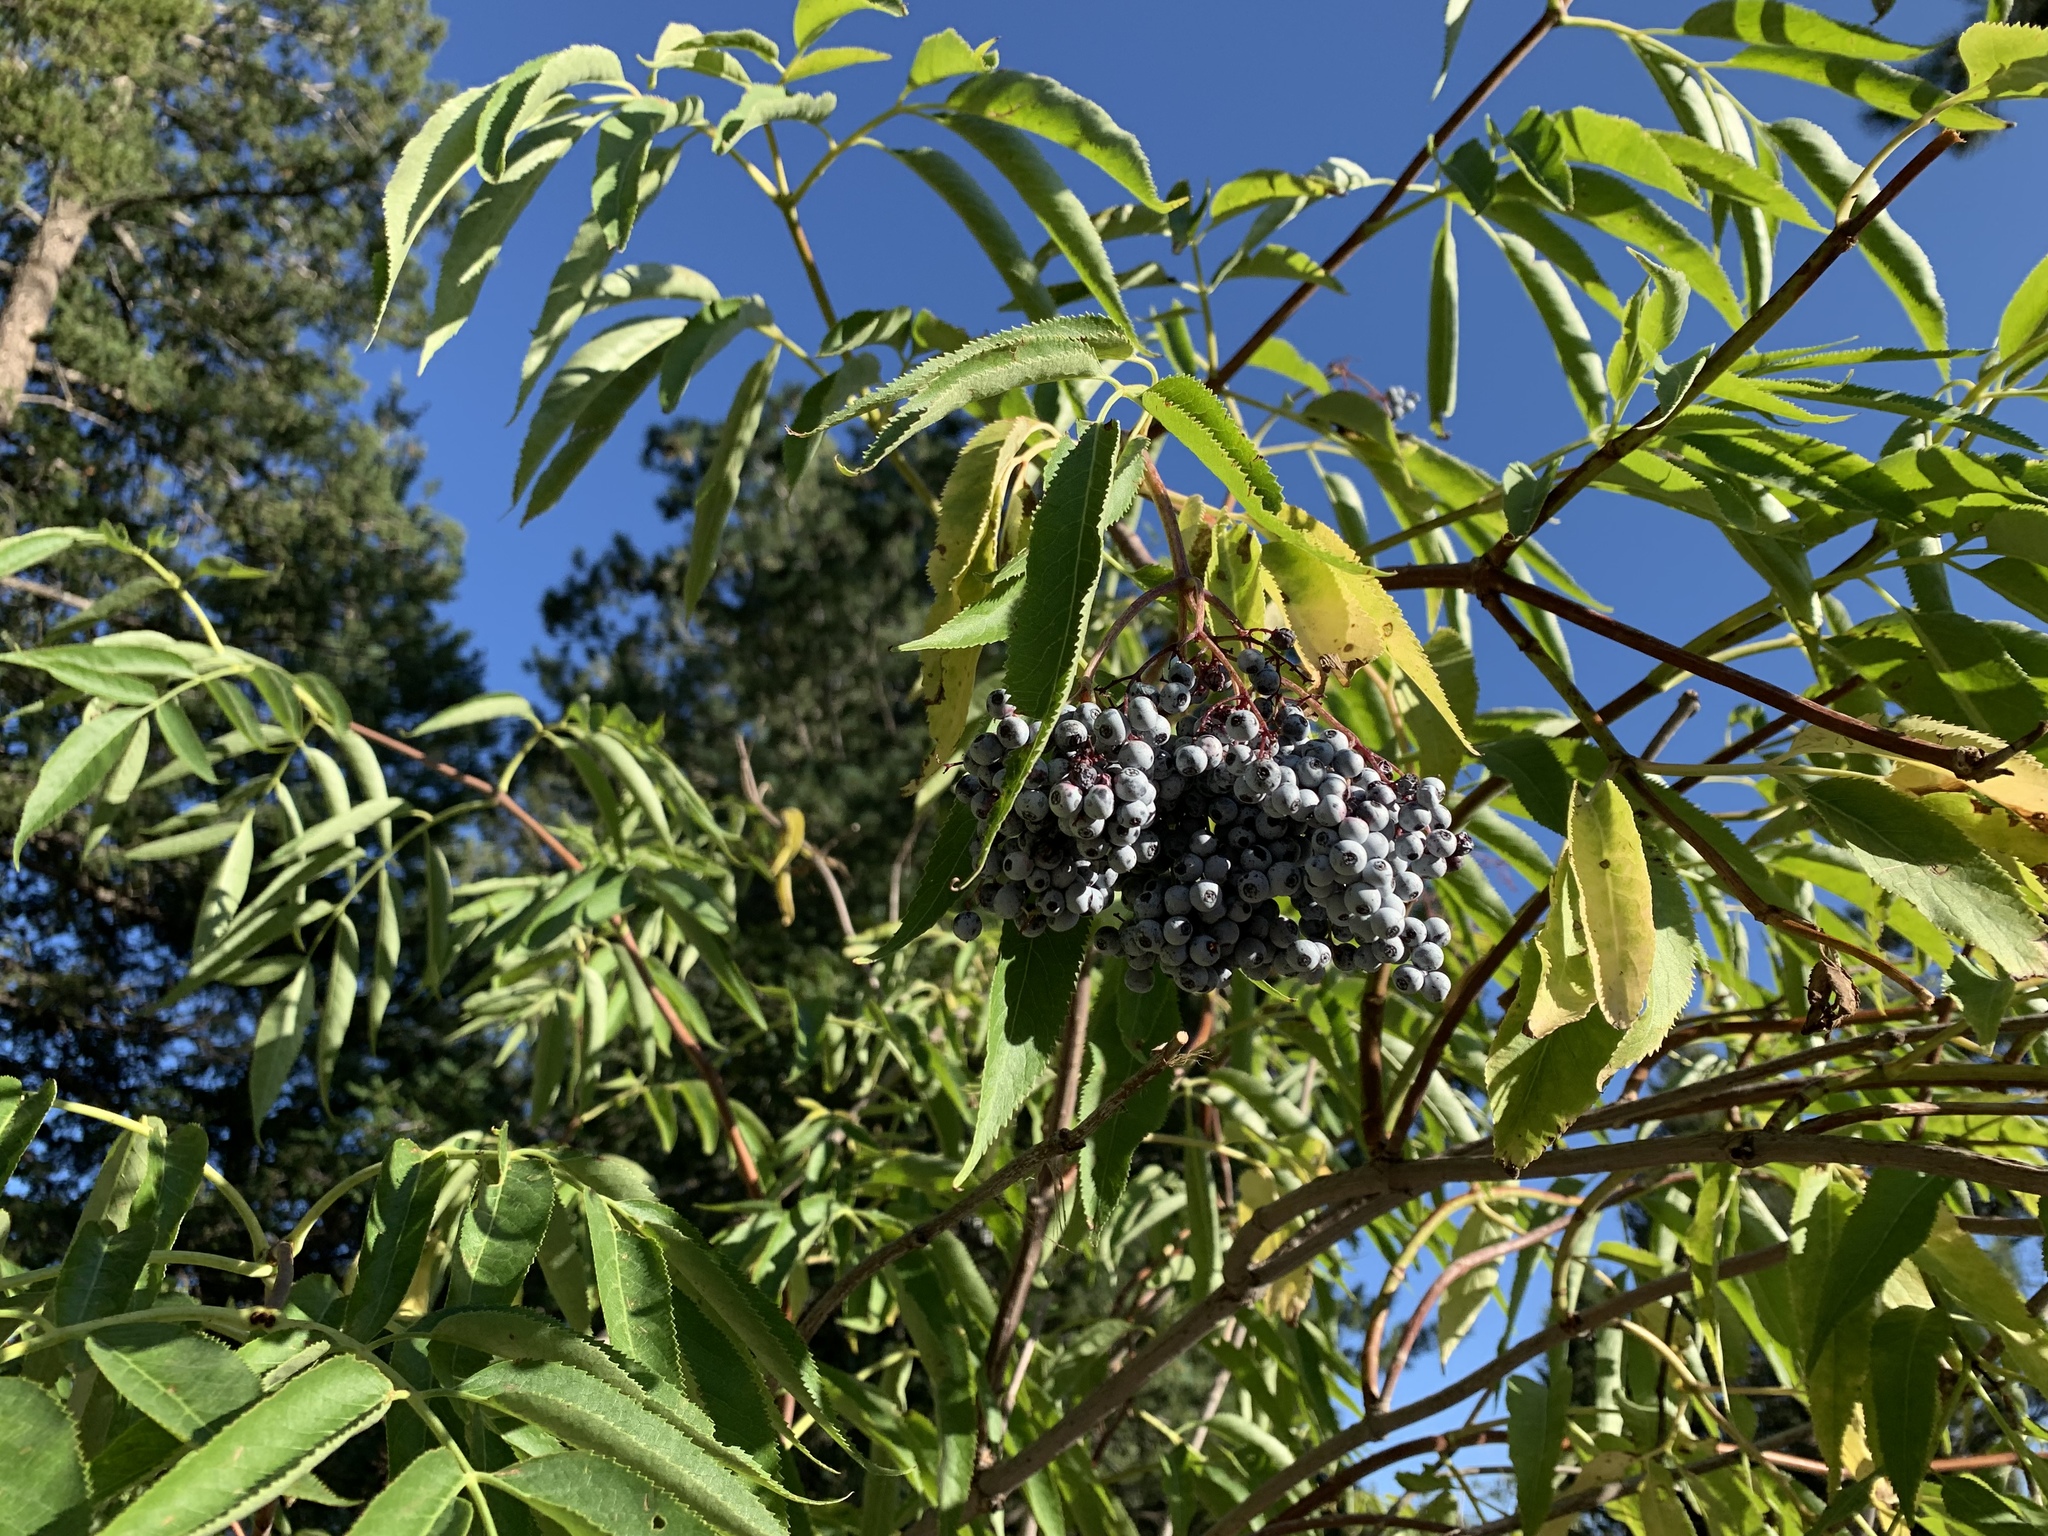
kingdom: Plantae
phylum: Tracheophyta
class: Magnoliopsida
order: Dipsacales
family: Viburnaceae
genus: Sambucus
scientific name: Sambucus cerulea
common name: Blue elder
